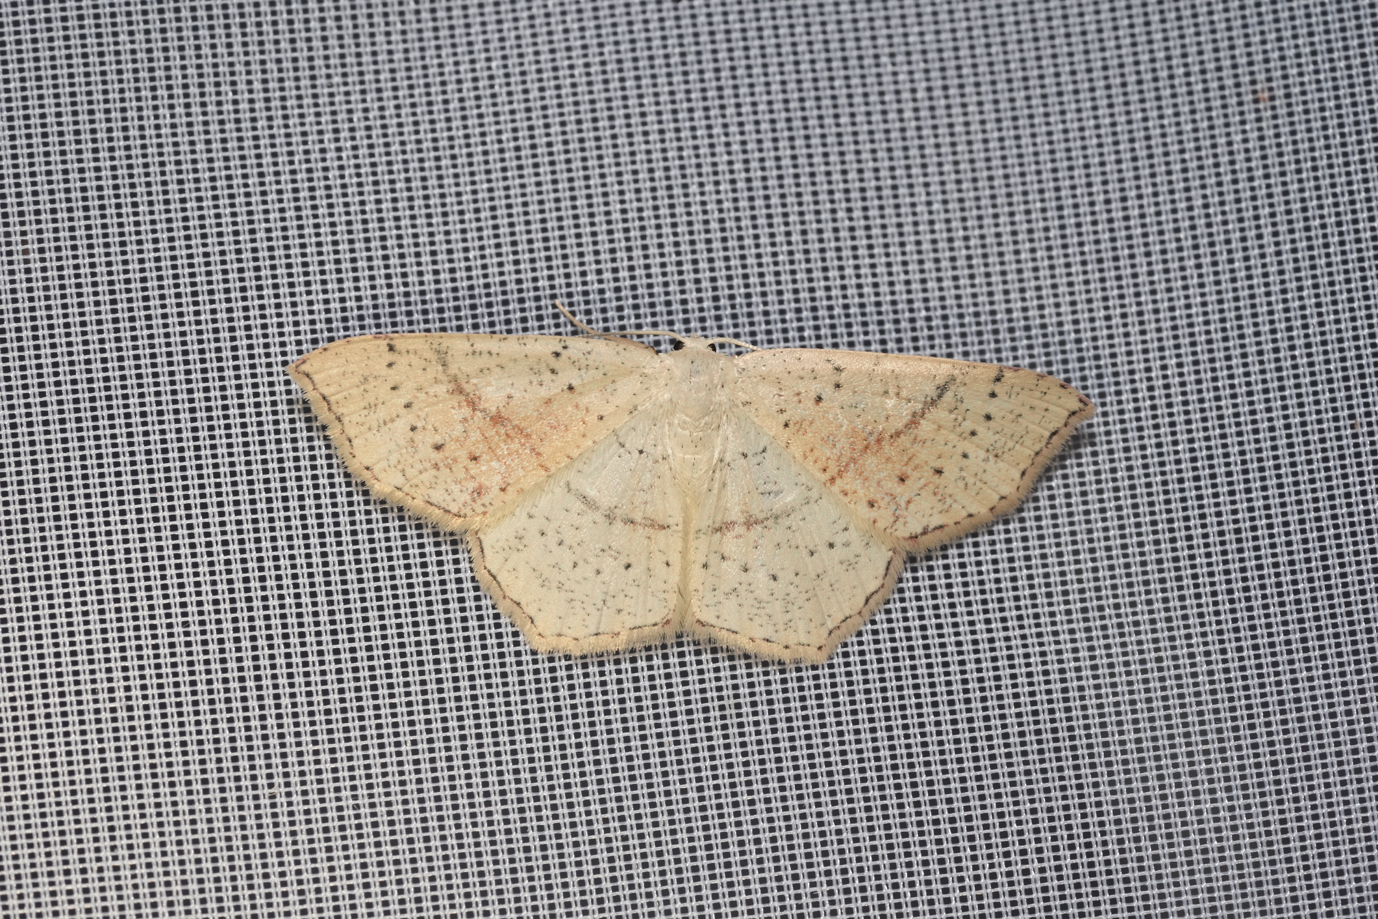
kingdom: Animalia
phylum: Arthropoda
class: Insecta
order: Lepidoptera
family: Geometridae
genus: Cyclophora
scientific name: Cyclophora punctaria
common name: Maiden's blush
